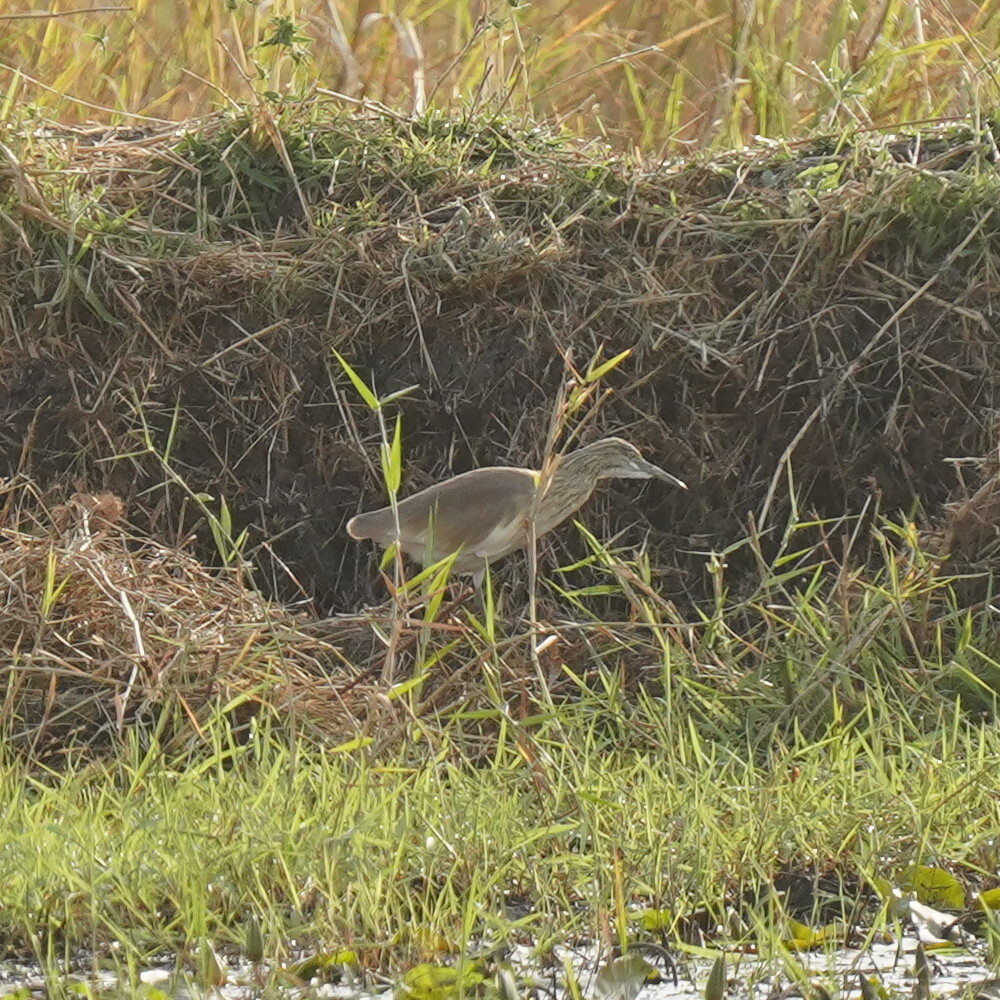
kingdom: Animalia
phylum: Chordata
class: Aves
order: Pelecaniformes
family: Ardeidae
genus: Ardeola
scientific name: Ardeola ralloides
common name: Squacco heron
